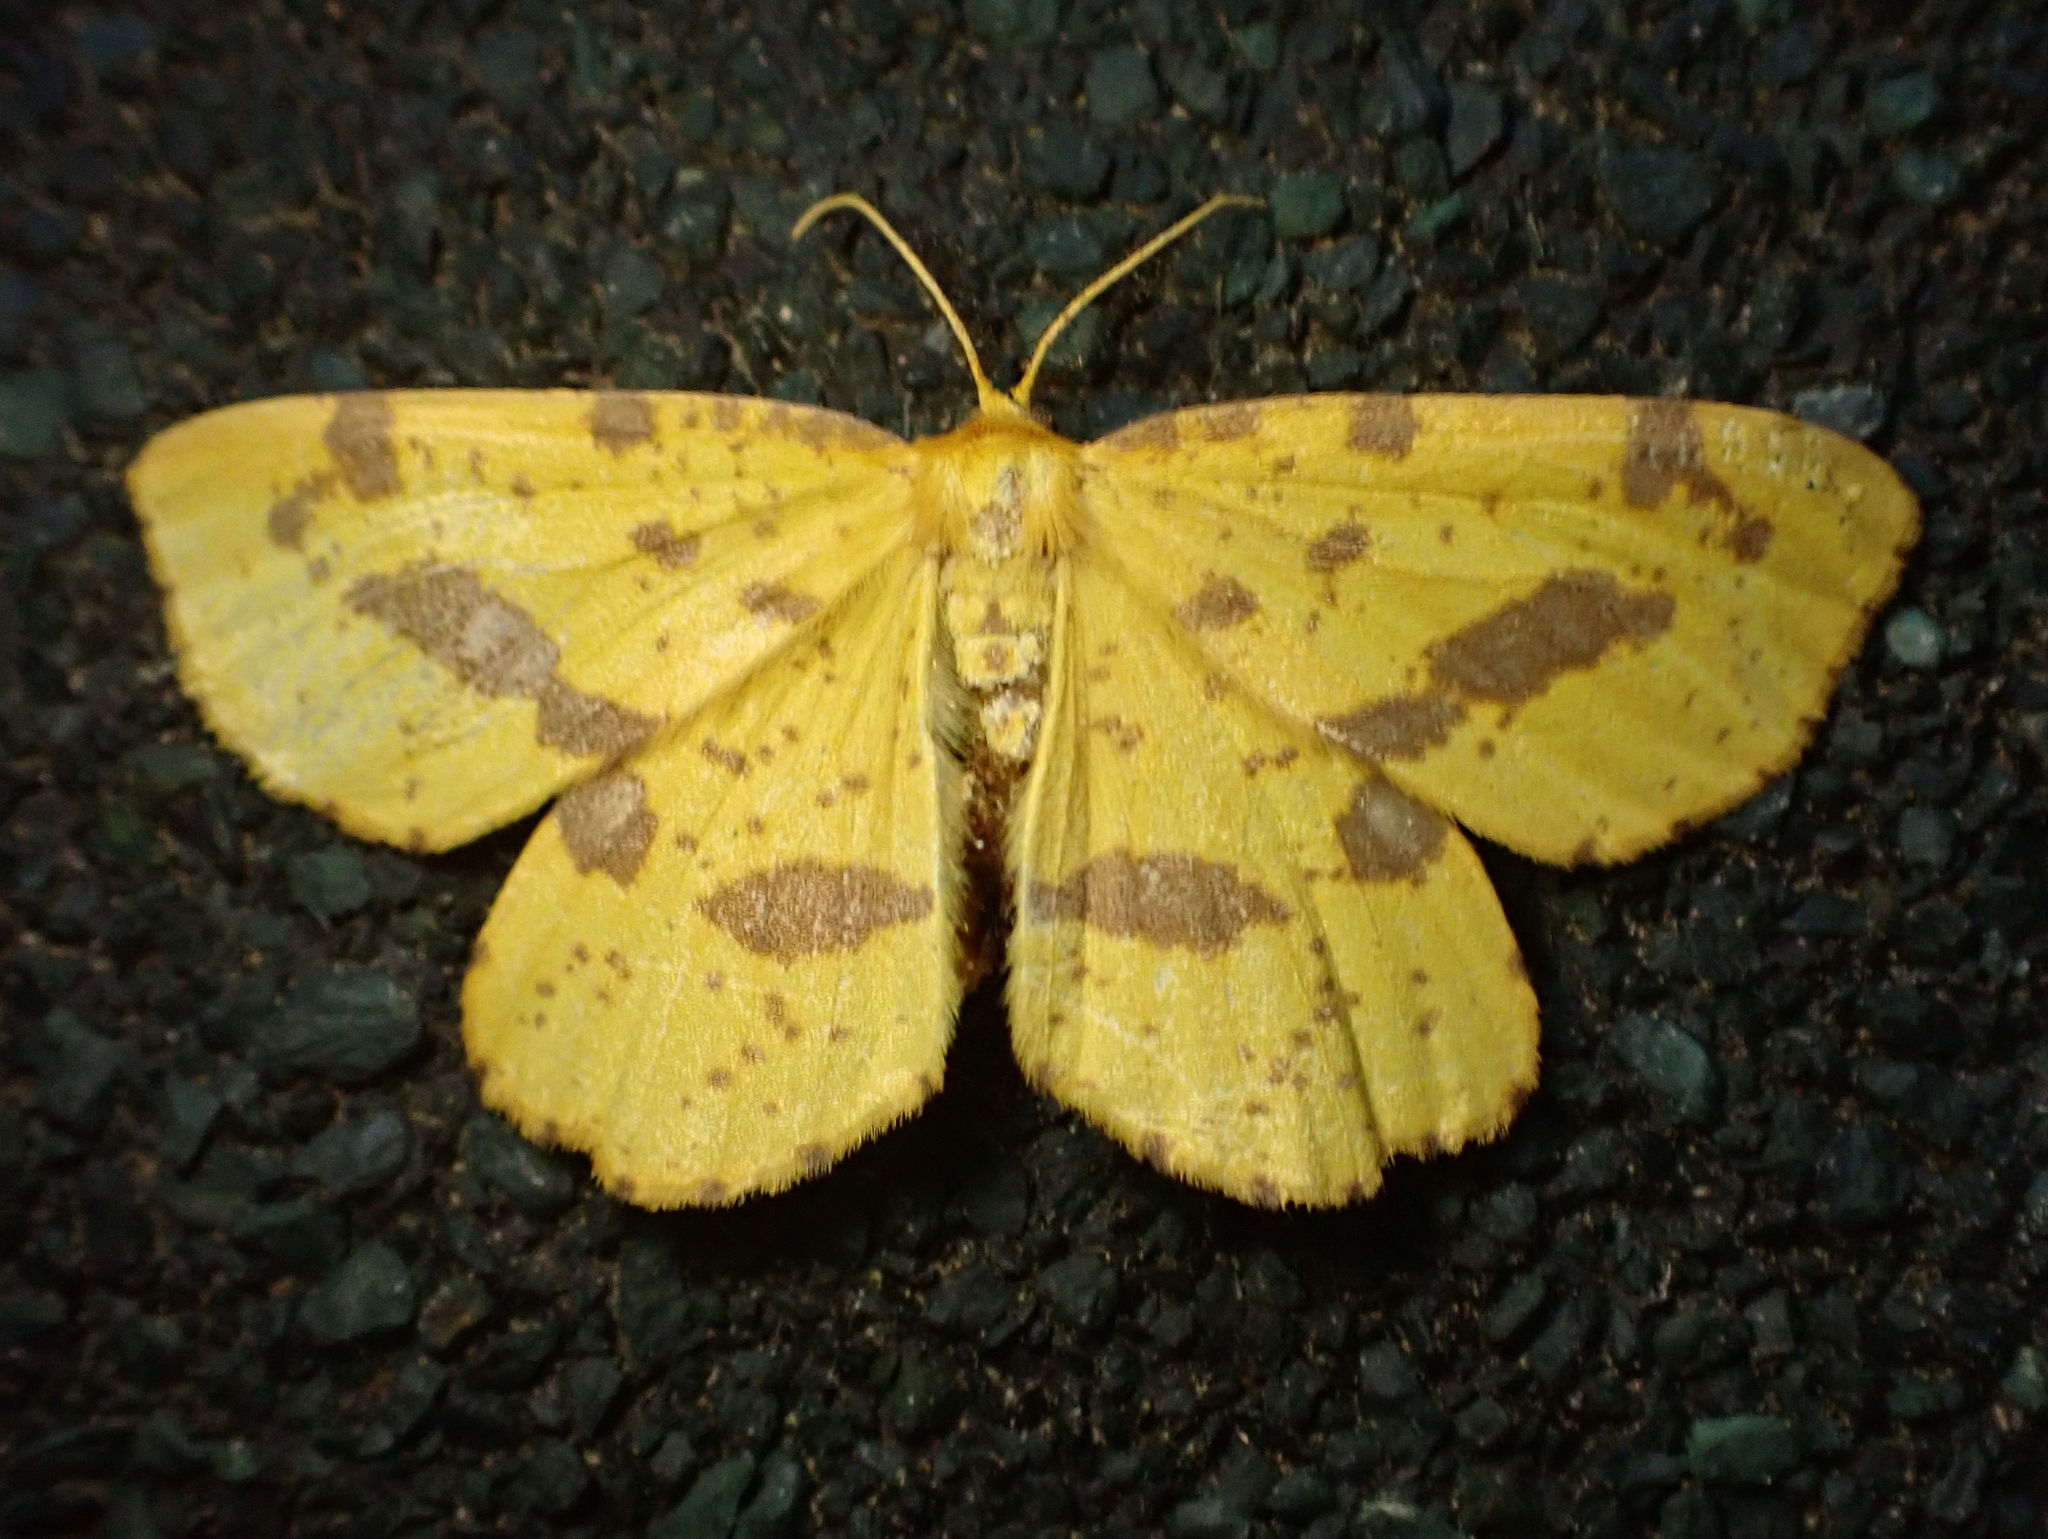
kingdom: Animalia
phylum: Arthropoda
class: Insecta
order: Lepidoptera
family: Geometridae
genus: Xanthotype
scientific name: Xanthotype
